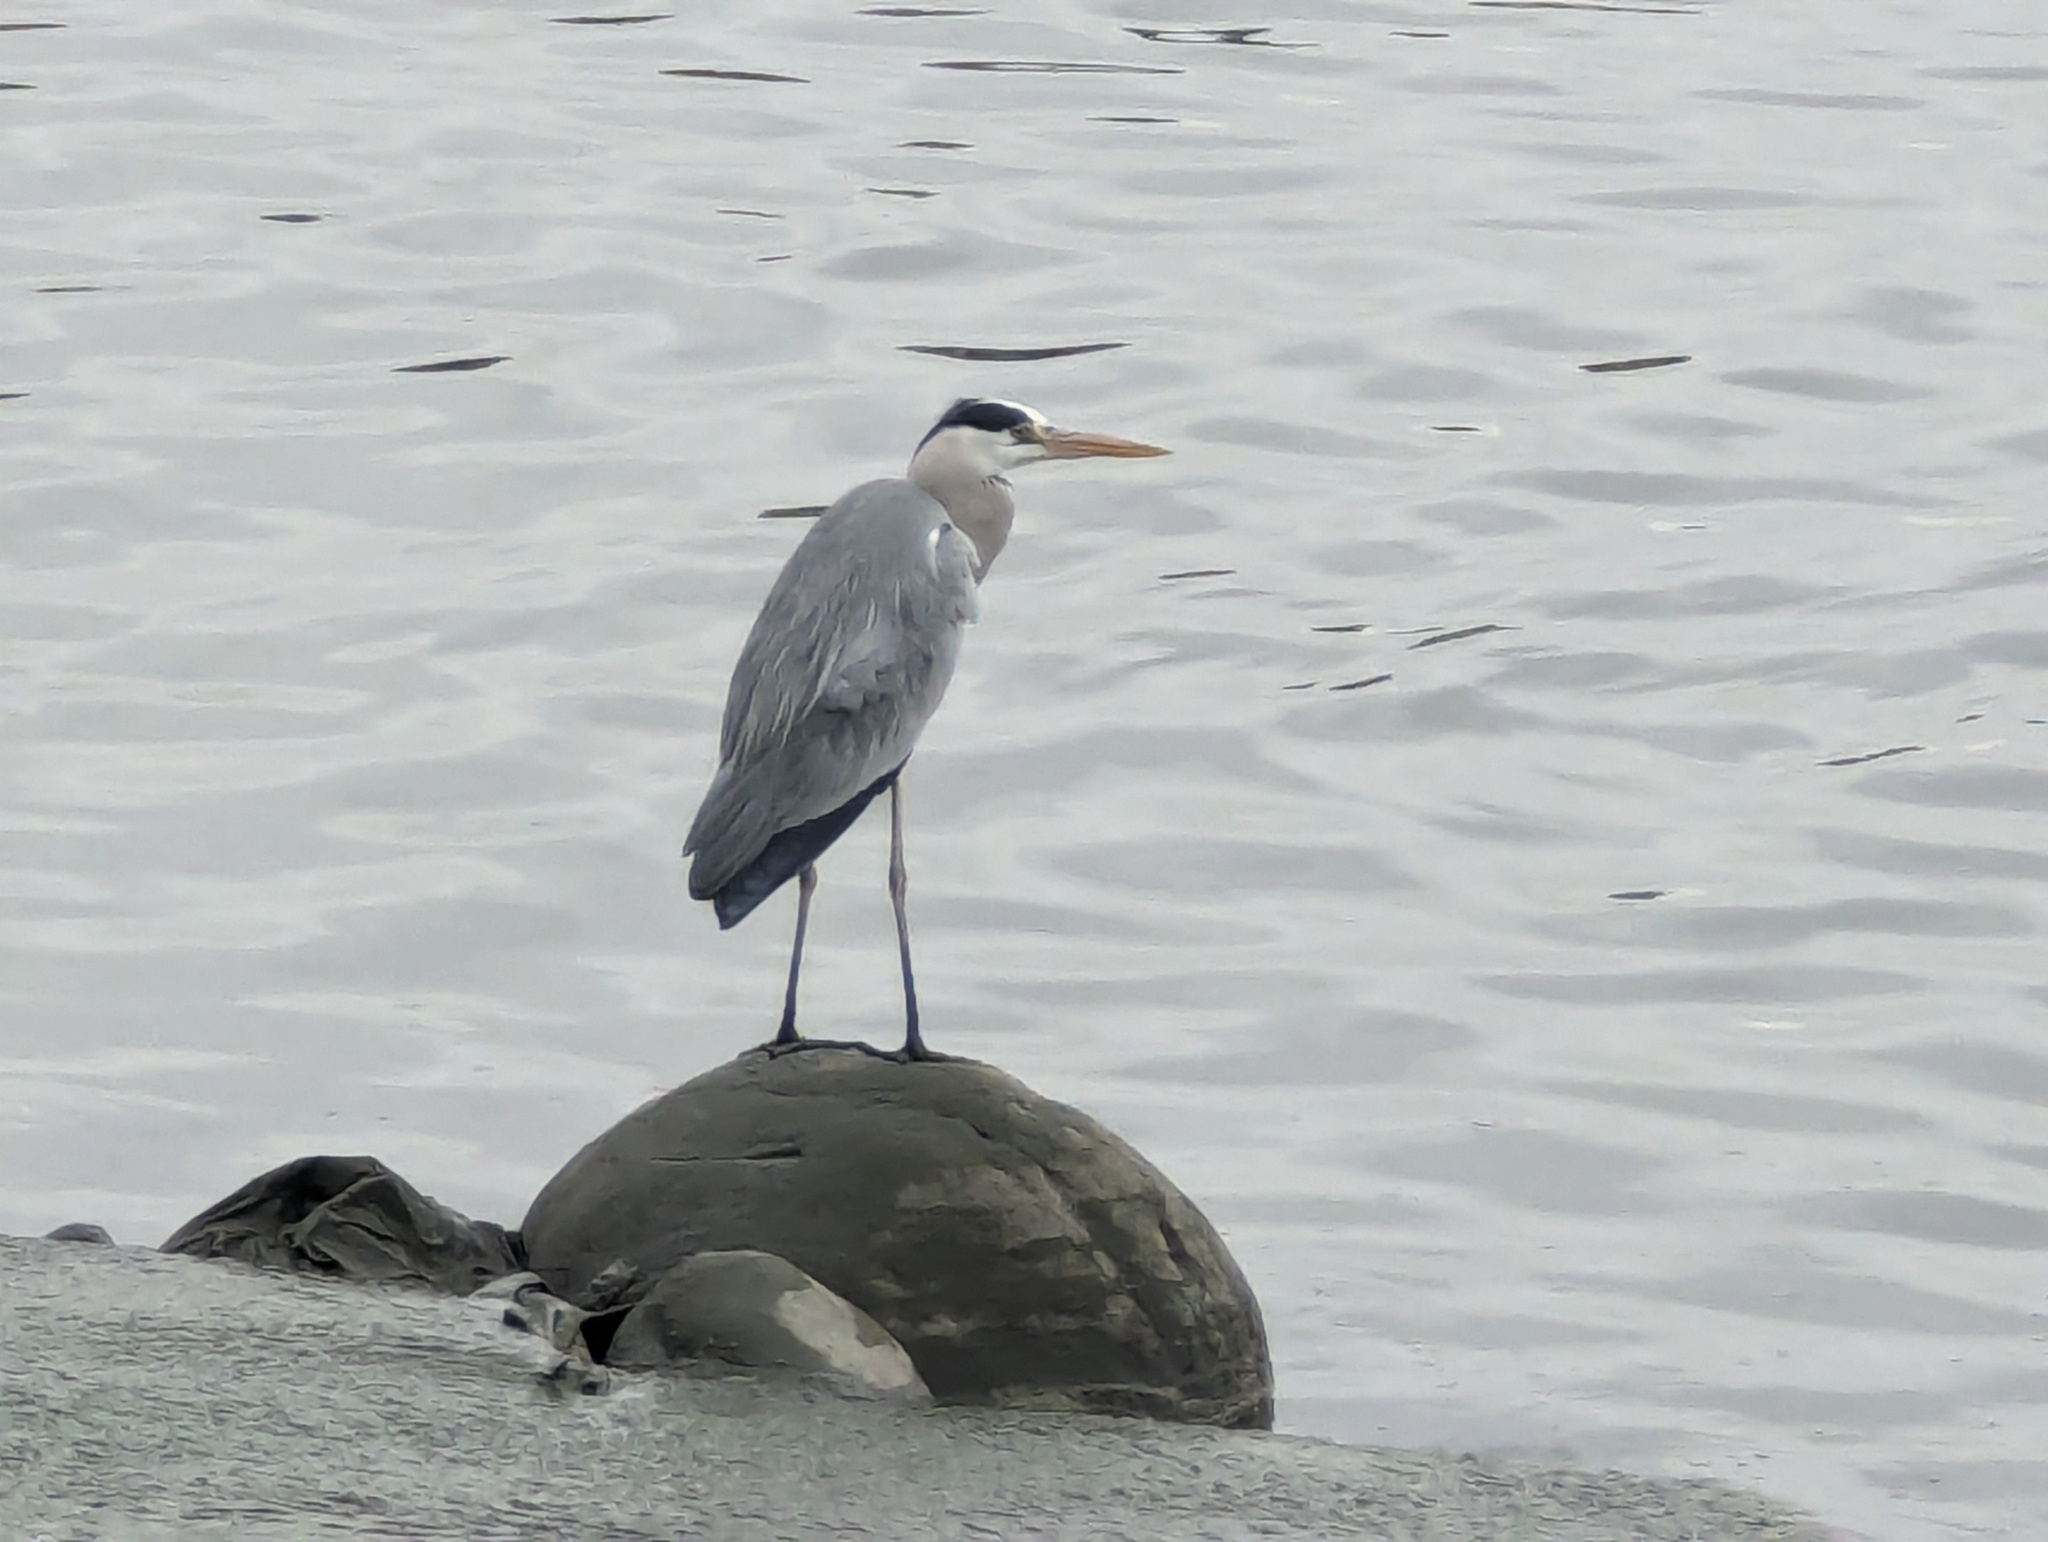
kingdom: Animalia
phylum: Chordata
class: Aves
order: Pelecaniformes
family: Ardeidae
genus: Ardea
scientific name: Ardea cinerea
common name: Grey heron
